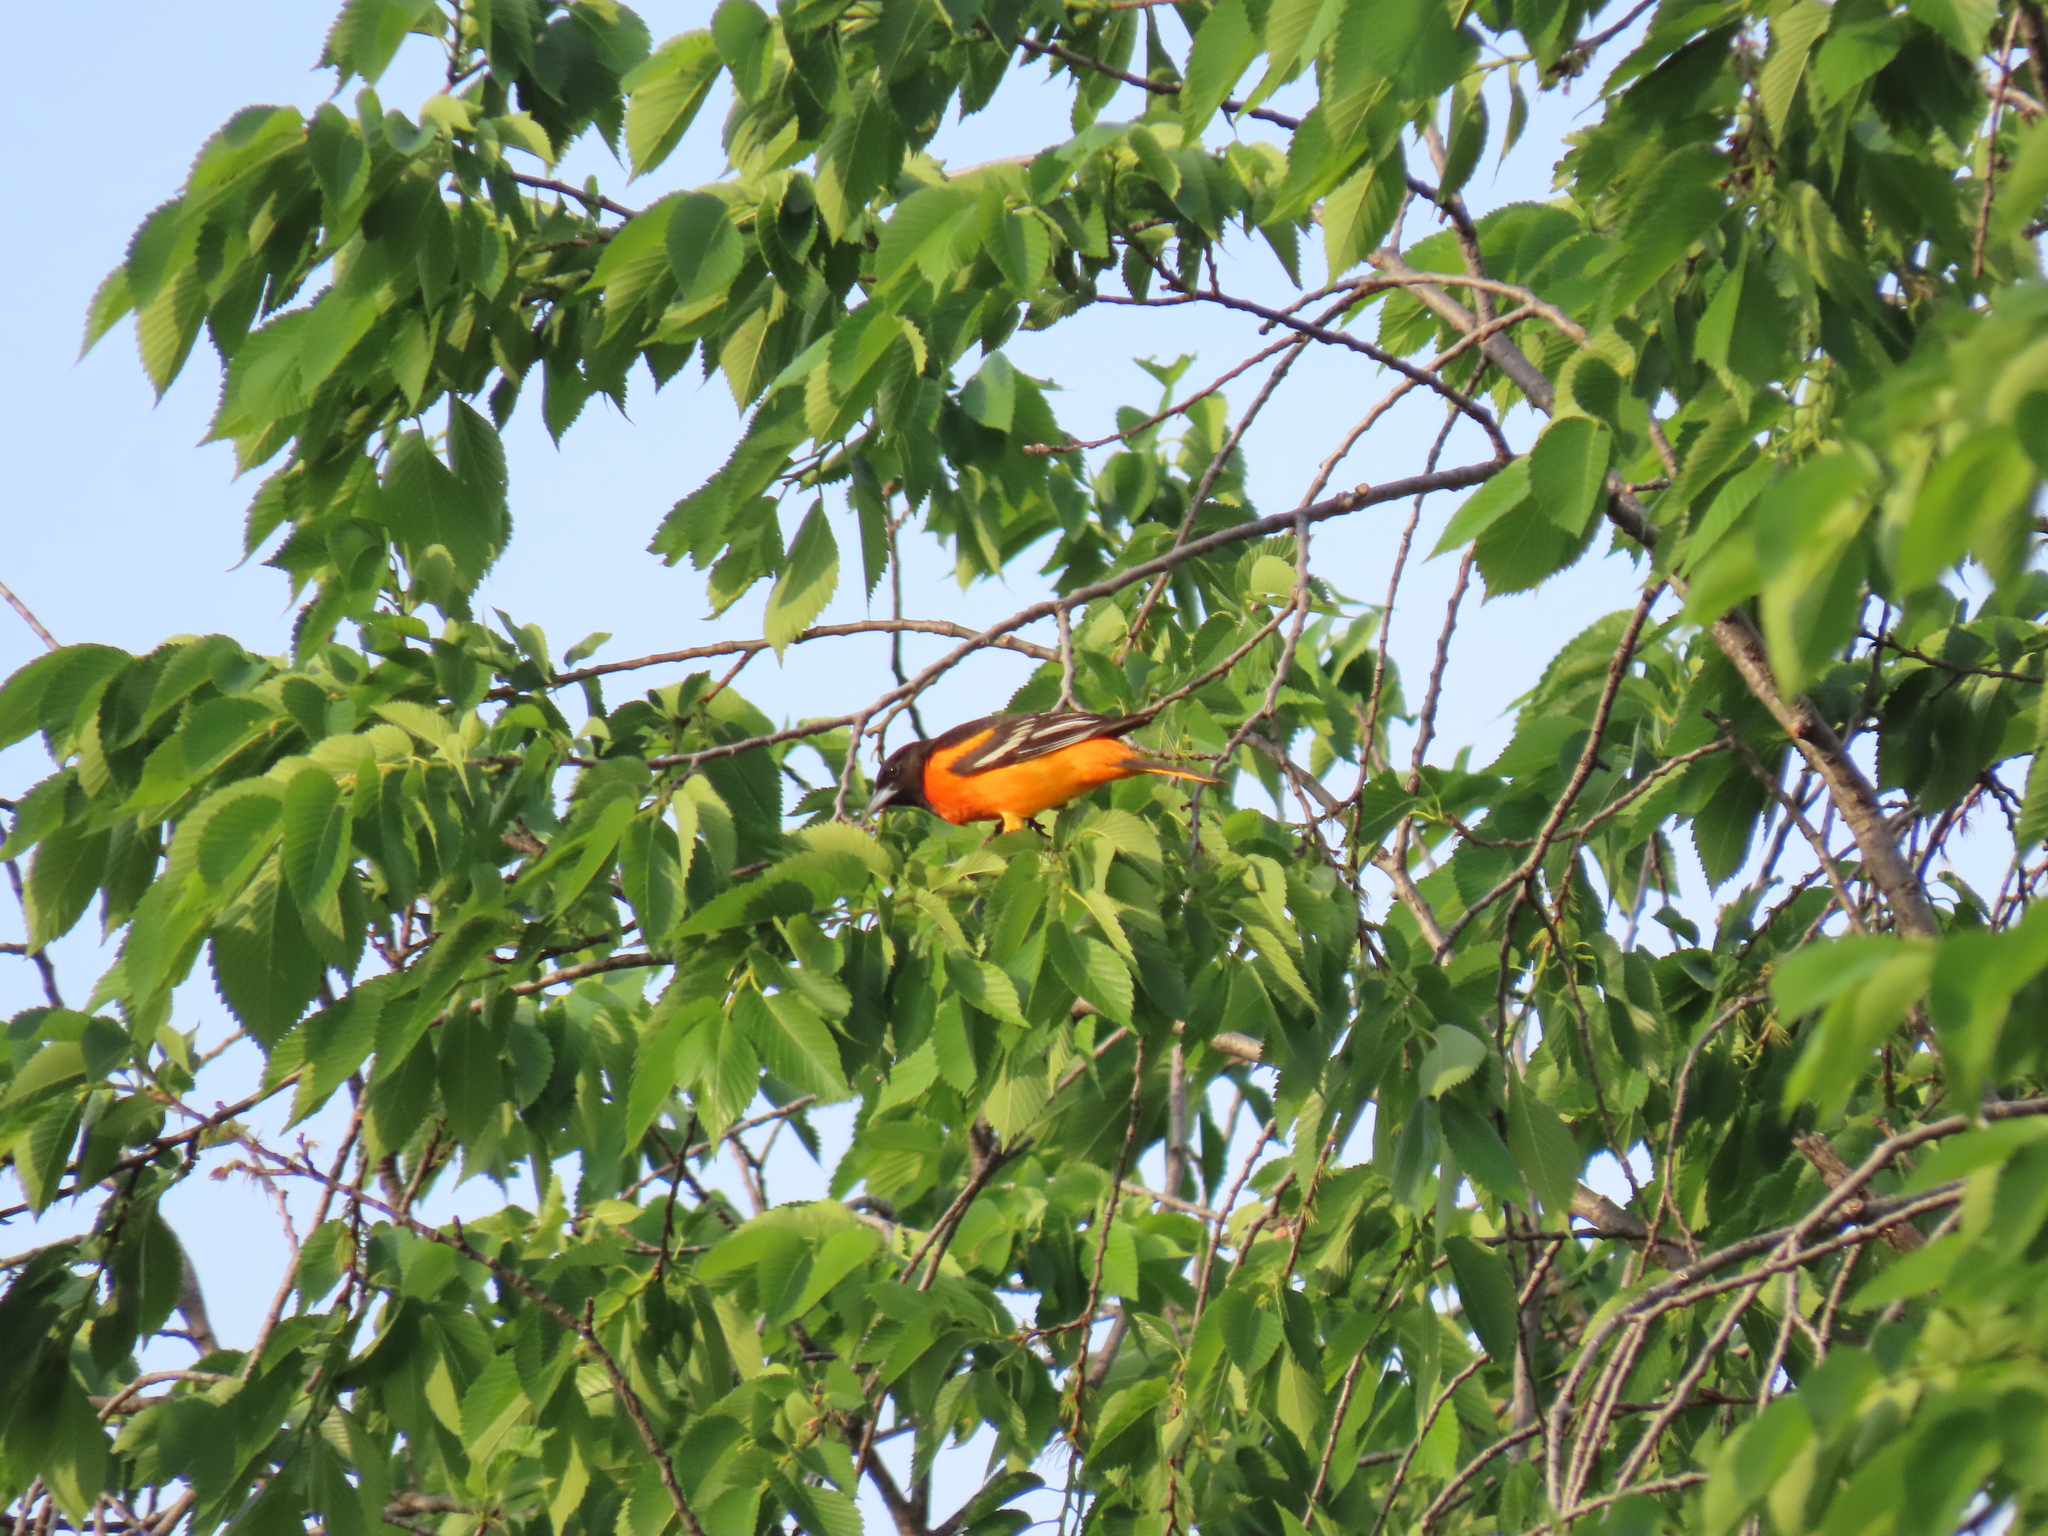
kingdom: Animalia
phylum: Chordata
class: Aves
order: Passeriformes
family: Icteridae
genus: Icterus
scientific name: Icterus galbula
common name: Baltimore oriole
